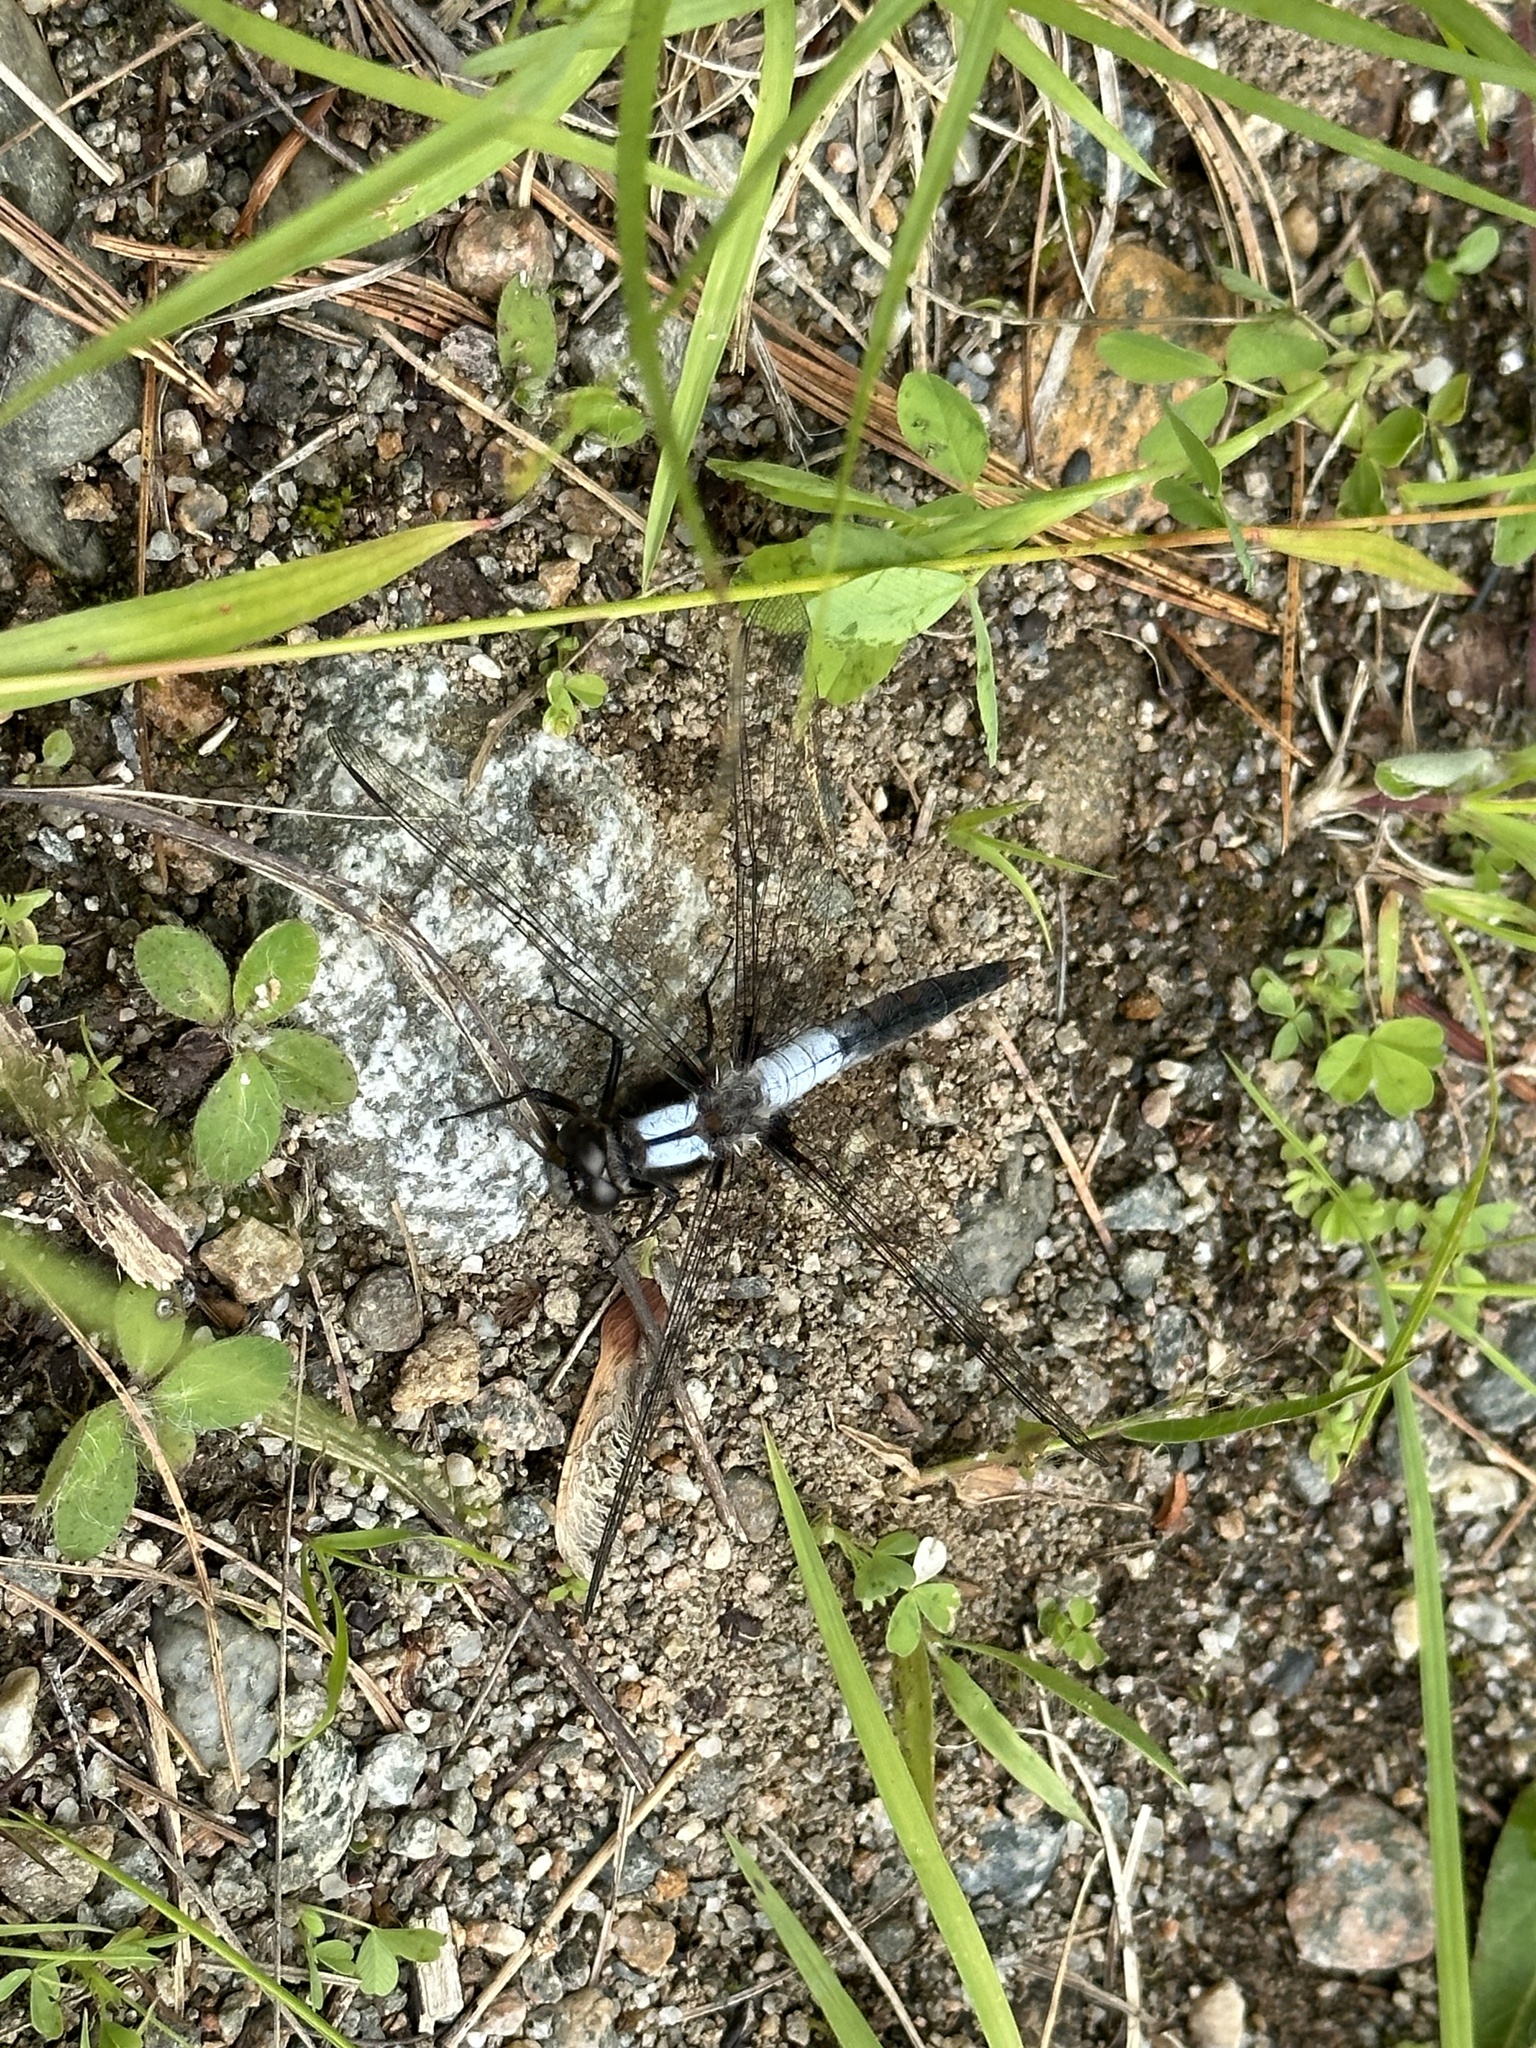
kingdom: Animalia
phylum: Arthropoda
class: Insecta
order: Odonata
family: Libellulidae
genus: Ladona
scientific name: Ladona julia
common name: Chalk-fronted corporal
